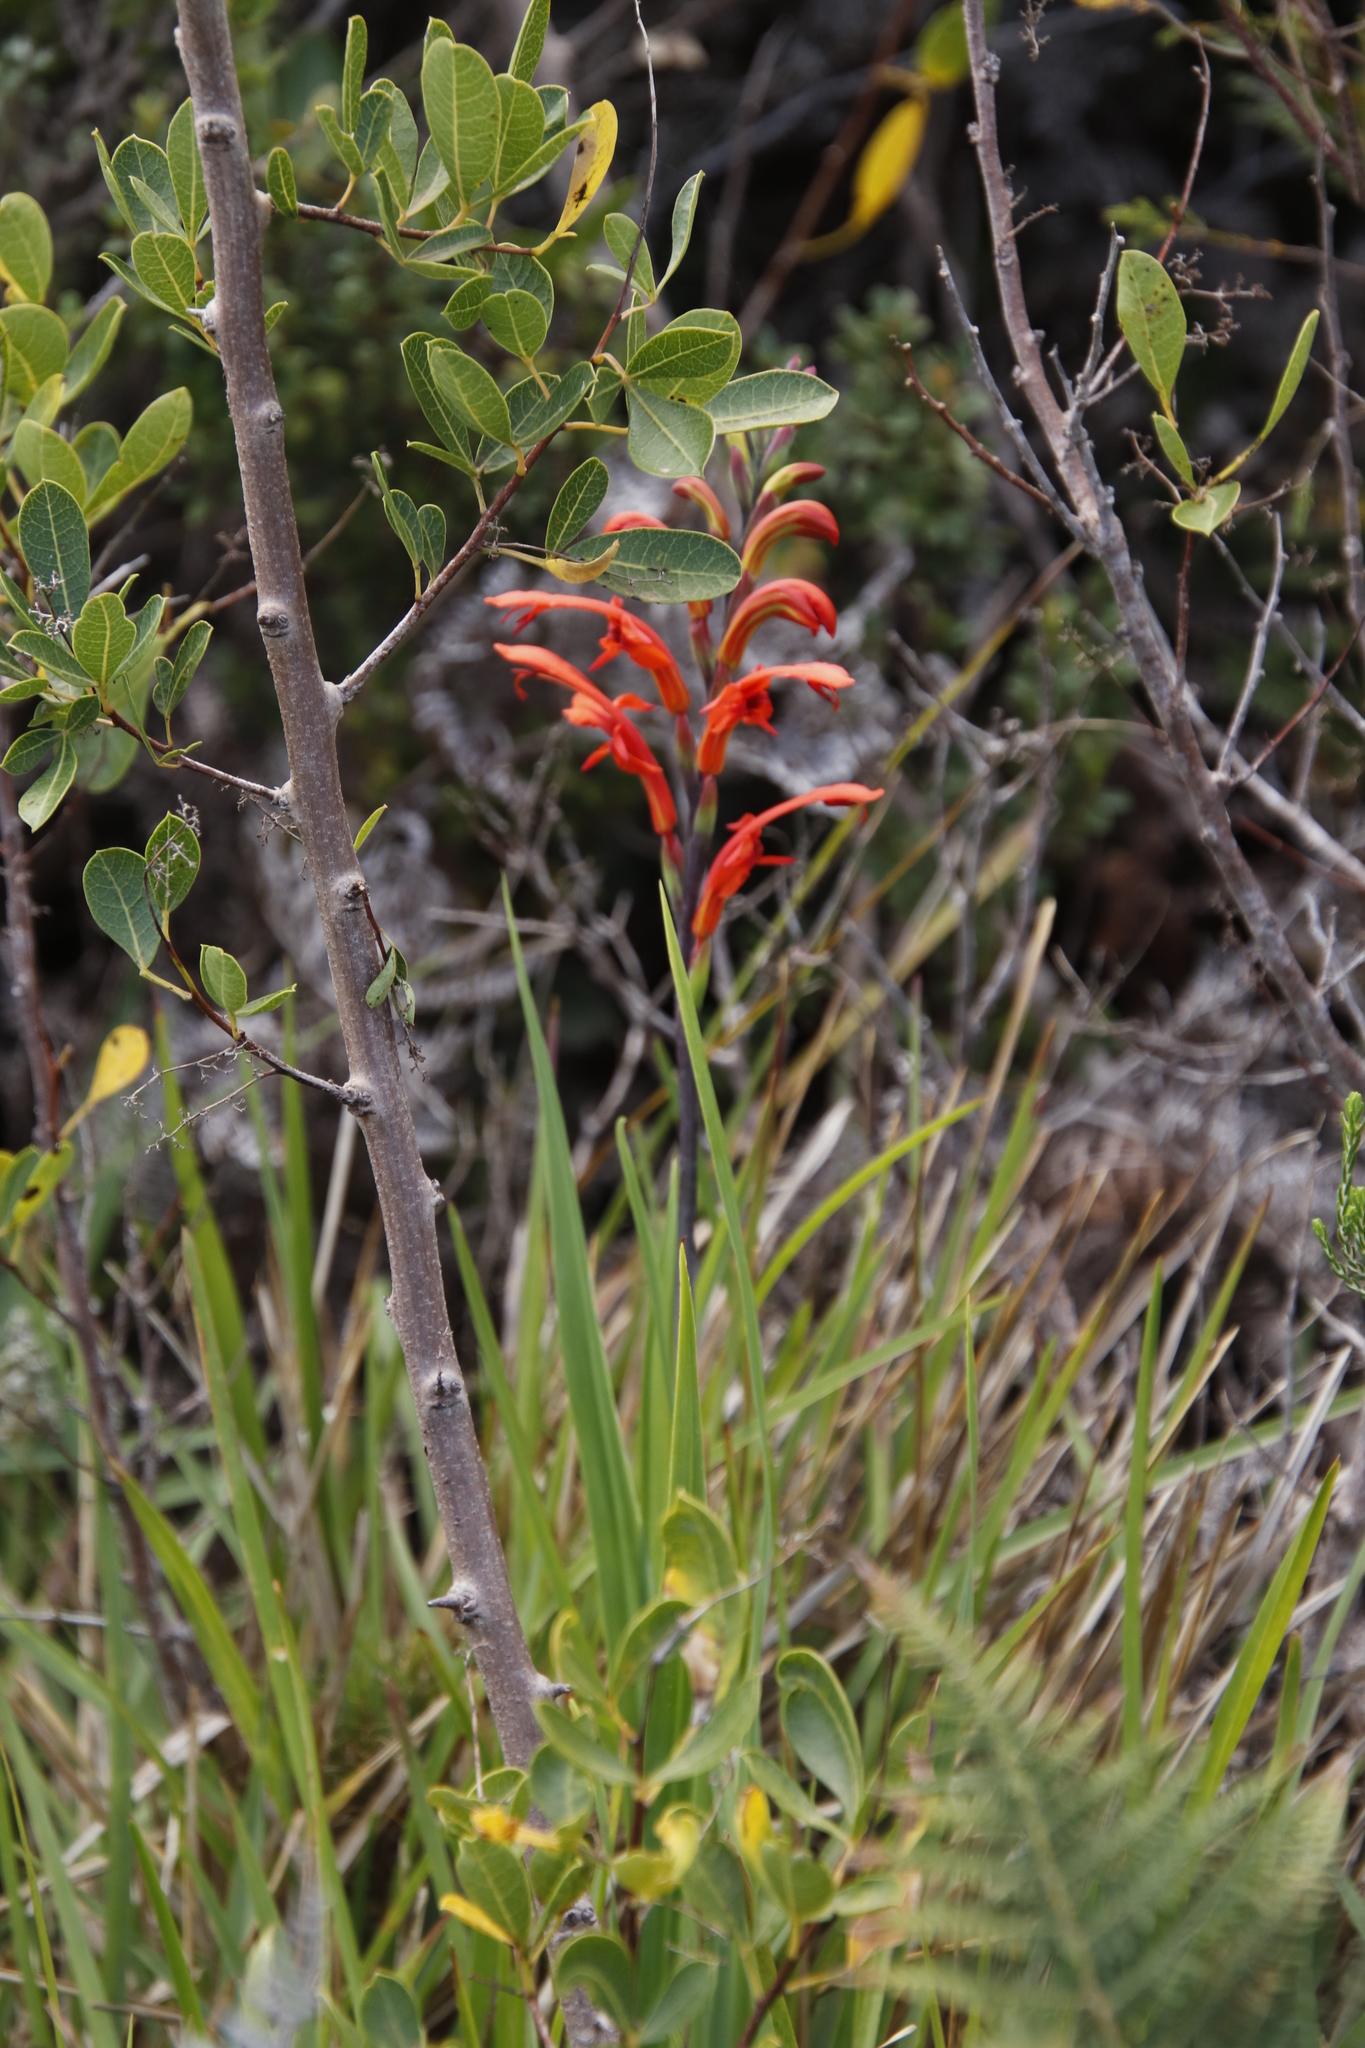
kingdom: Plantae
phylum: Tracheophyta
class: Liliopsida
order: Asparagales
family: Iridaceae
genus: Chasmanthe
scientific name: Chasmanthe aethiopica
